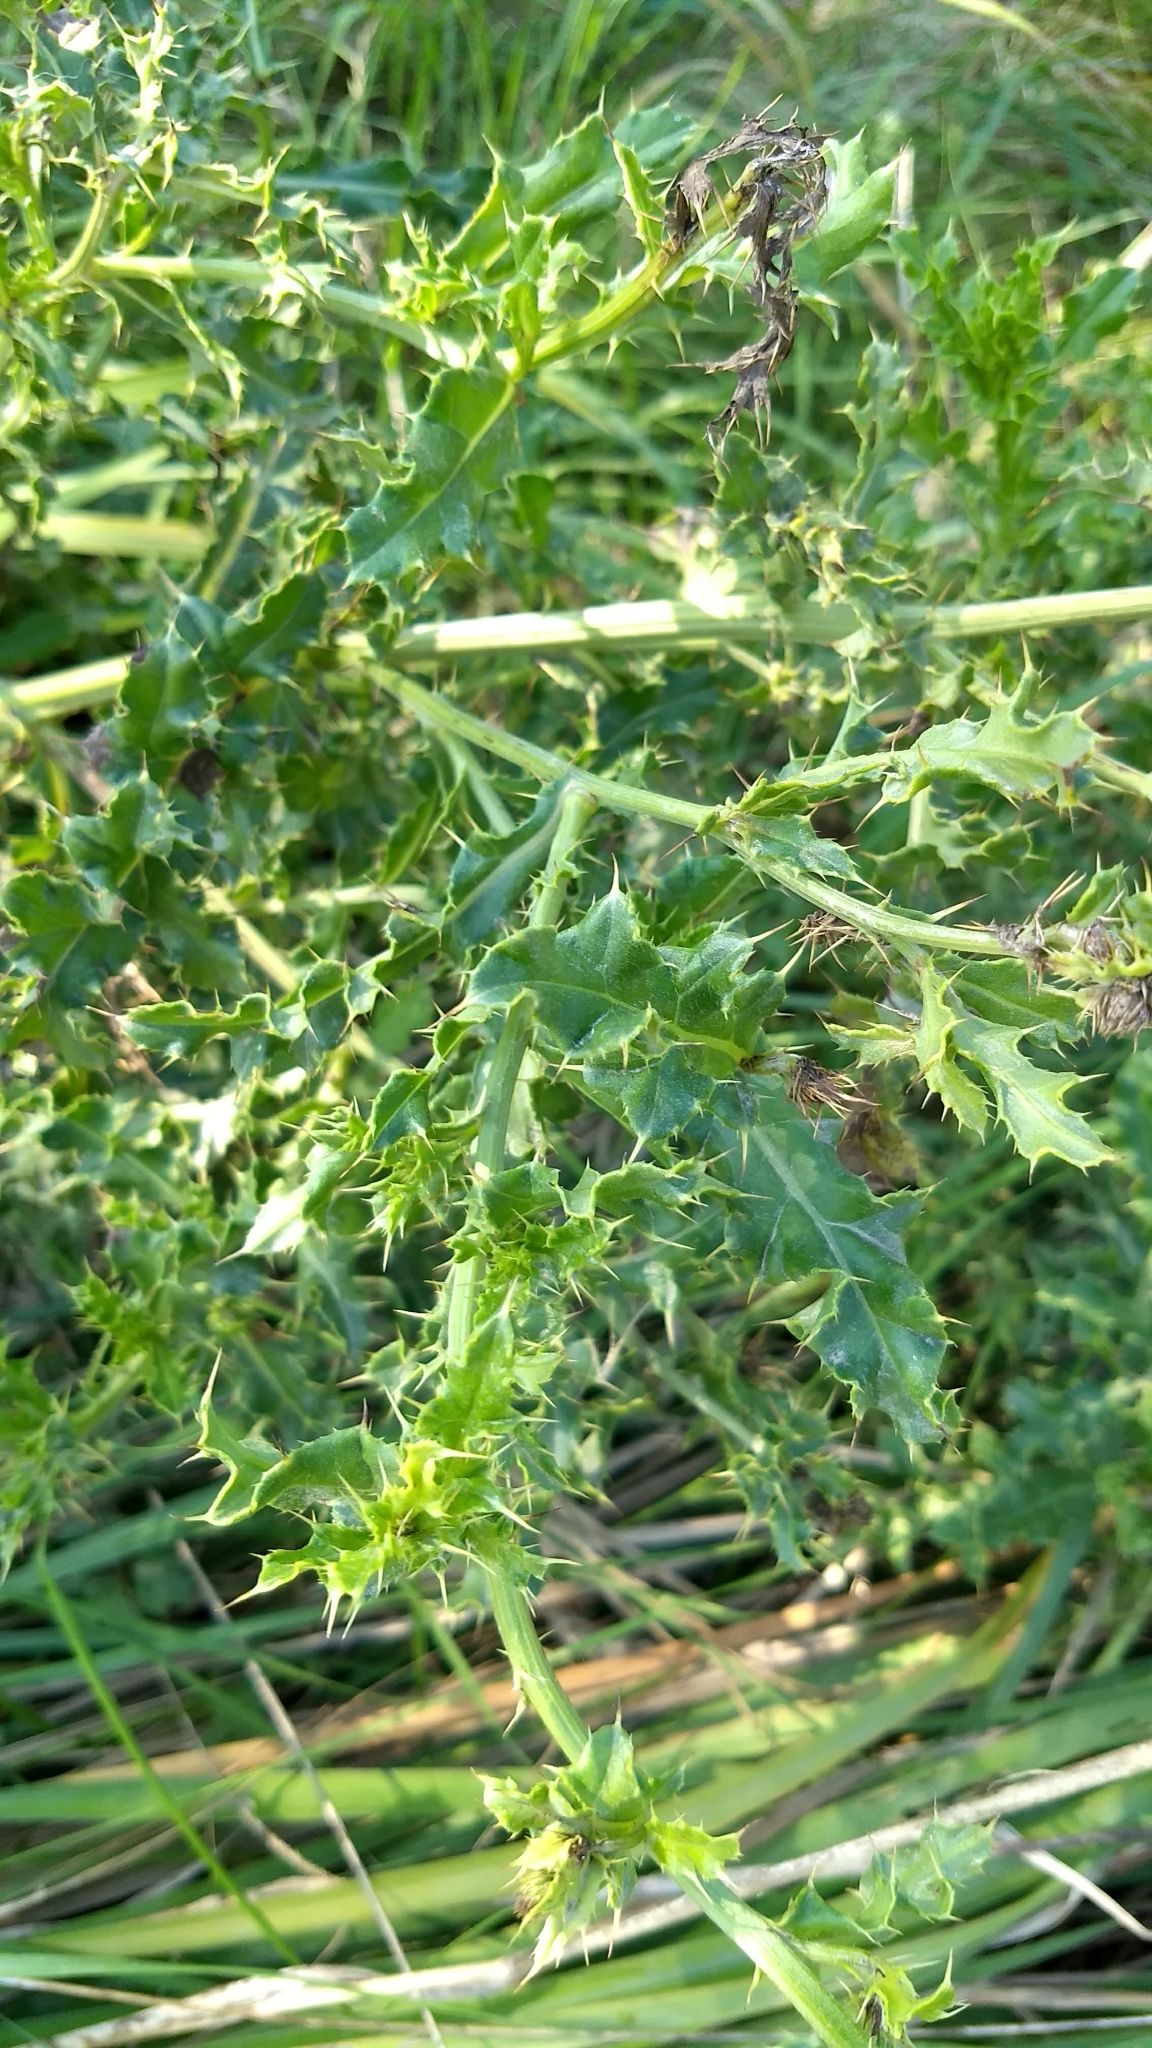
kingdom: Plantae
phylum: Tracheophyta
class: Magnoliopsida
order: Asterales
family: Asteraceae
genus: Cirsium
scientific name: Cirsium arvense
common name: Creeping thistle
